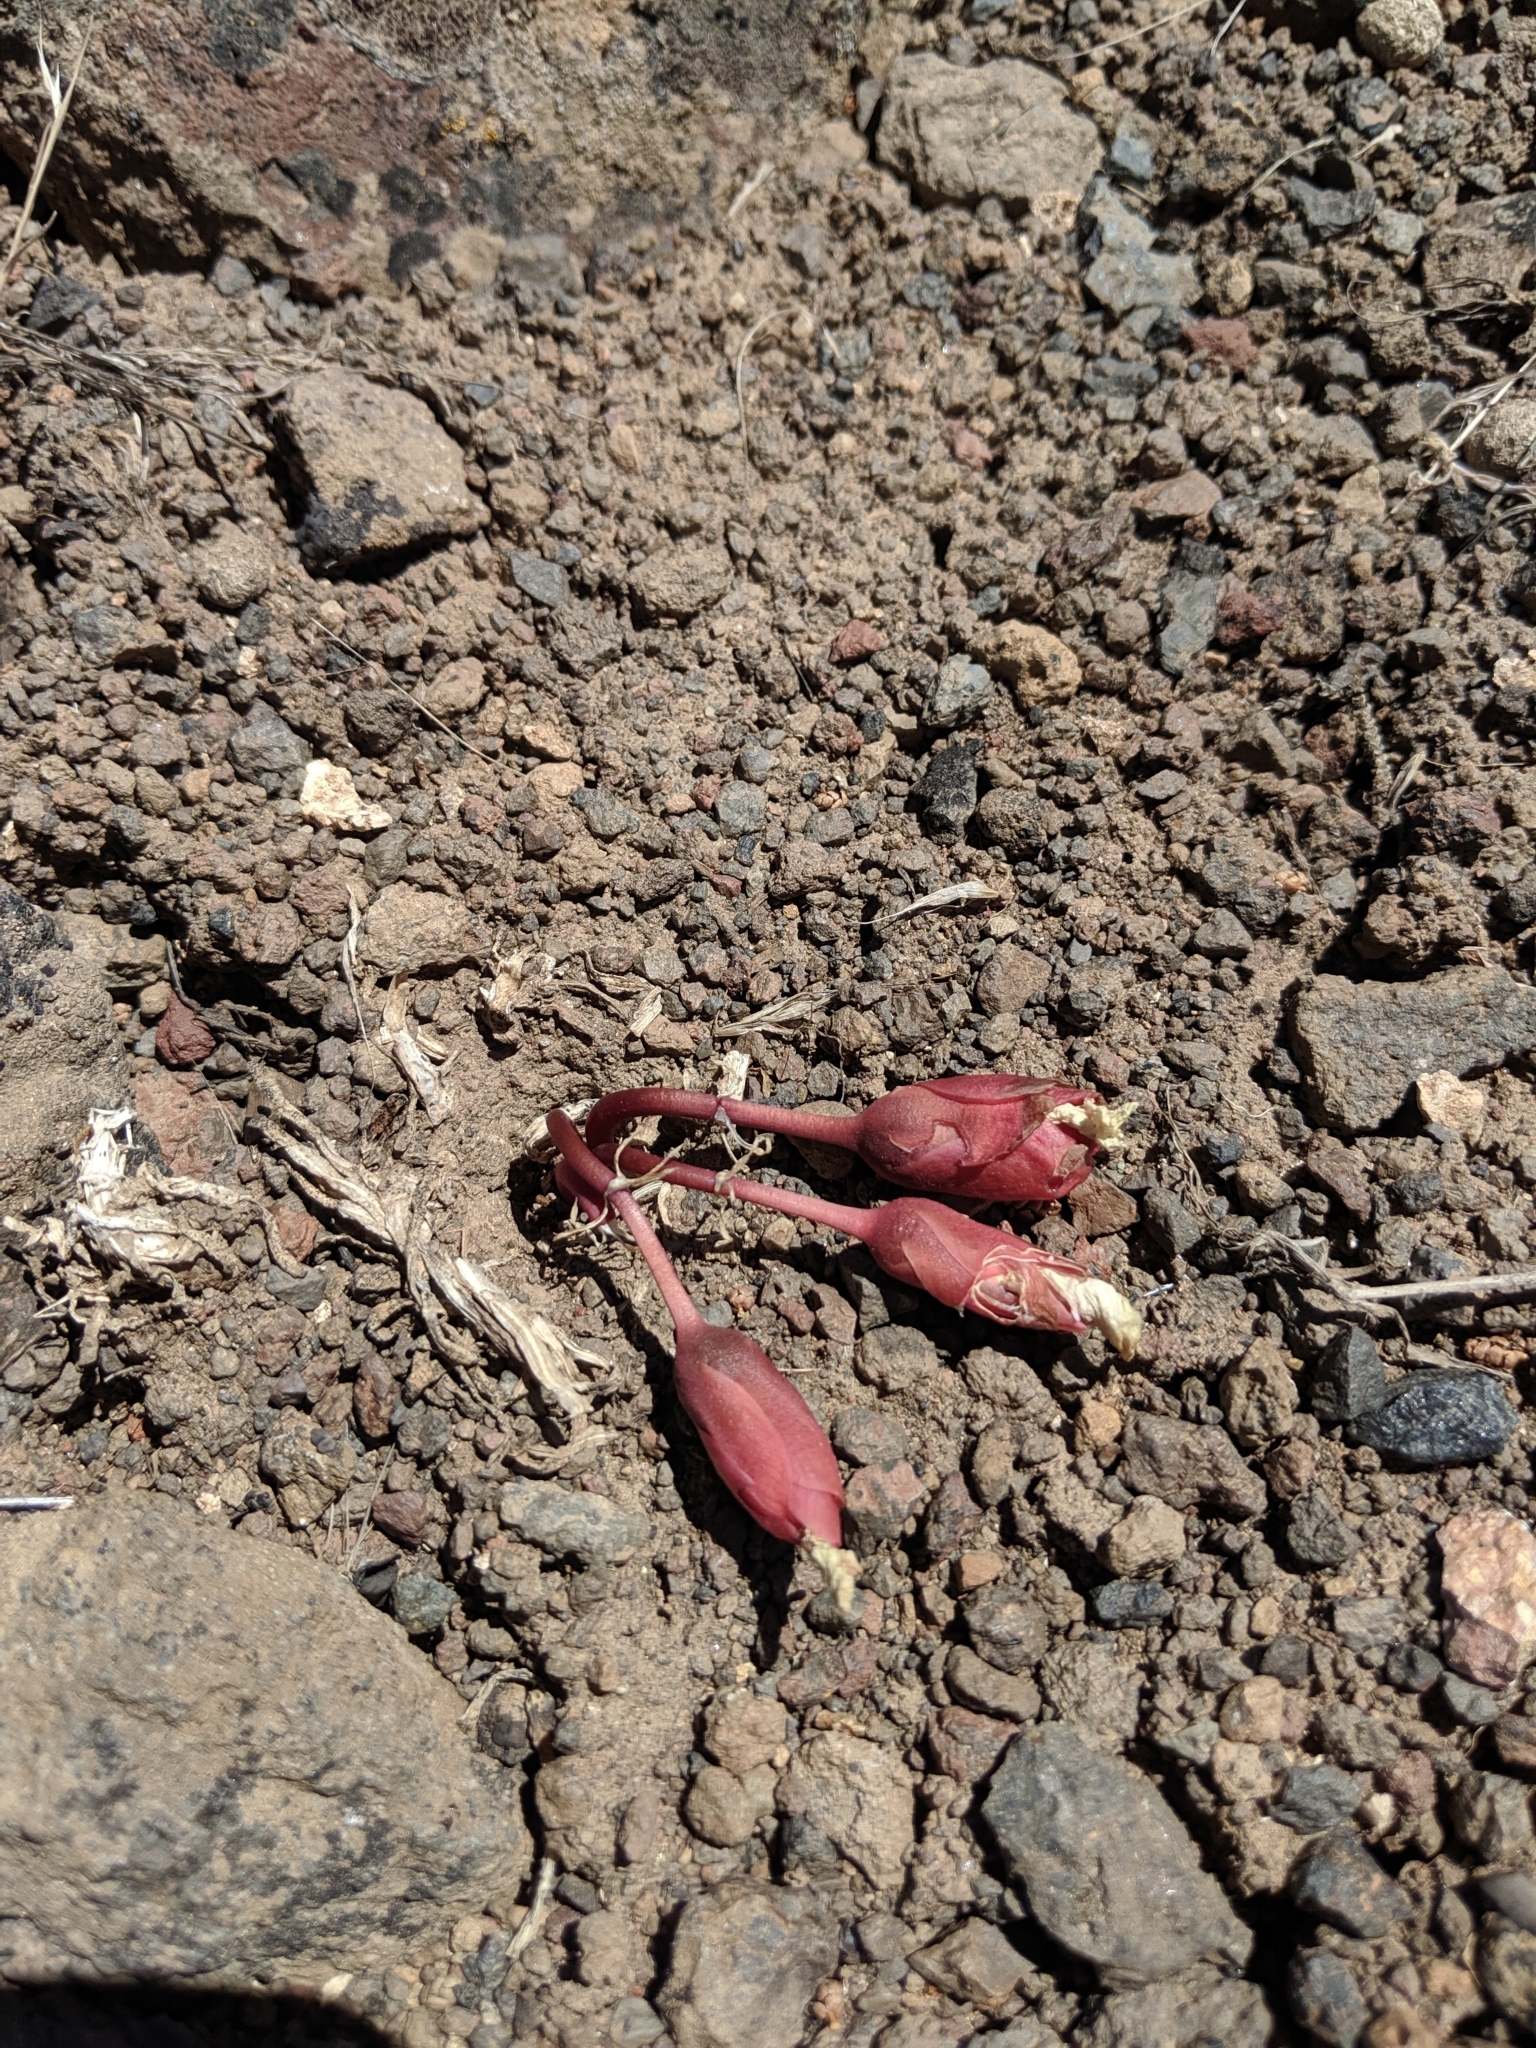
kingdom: Plantae
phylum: Tracheophyta
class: Magnoliopsida
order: Caryophyllales
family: Montiaceae
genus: Lewisia
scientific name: Lewisia rediviva
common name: Bitter-root
